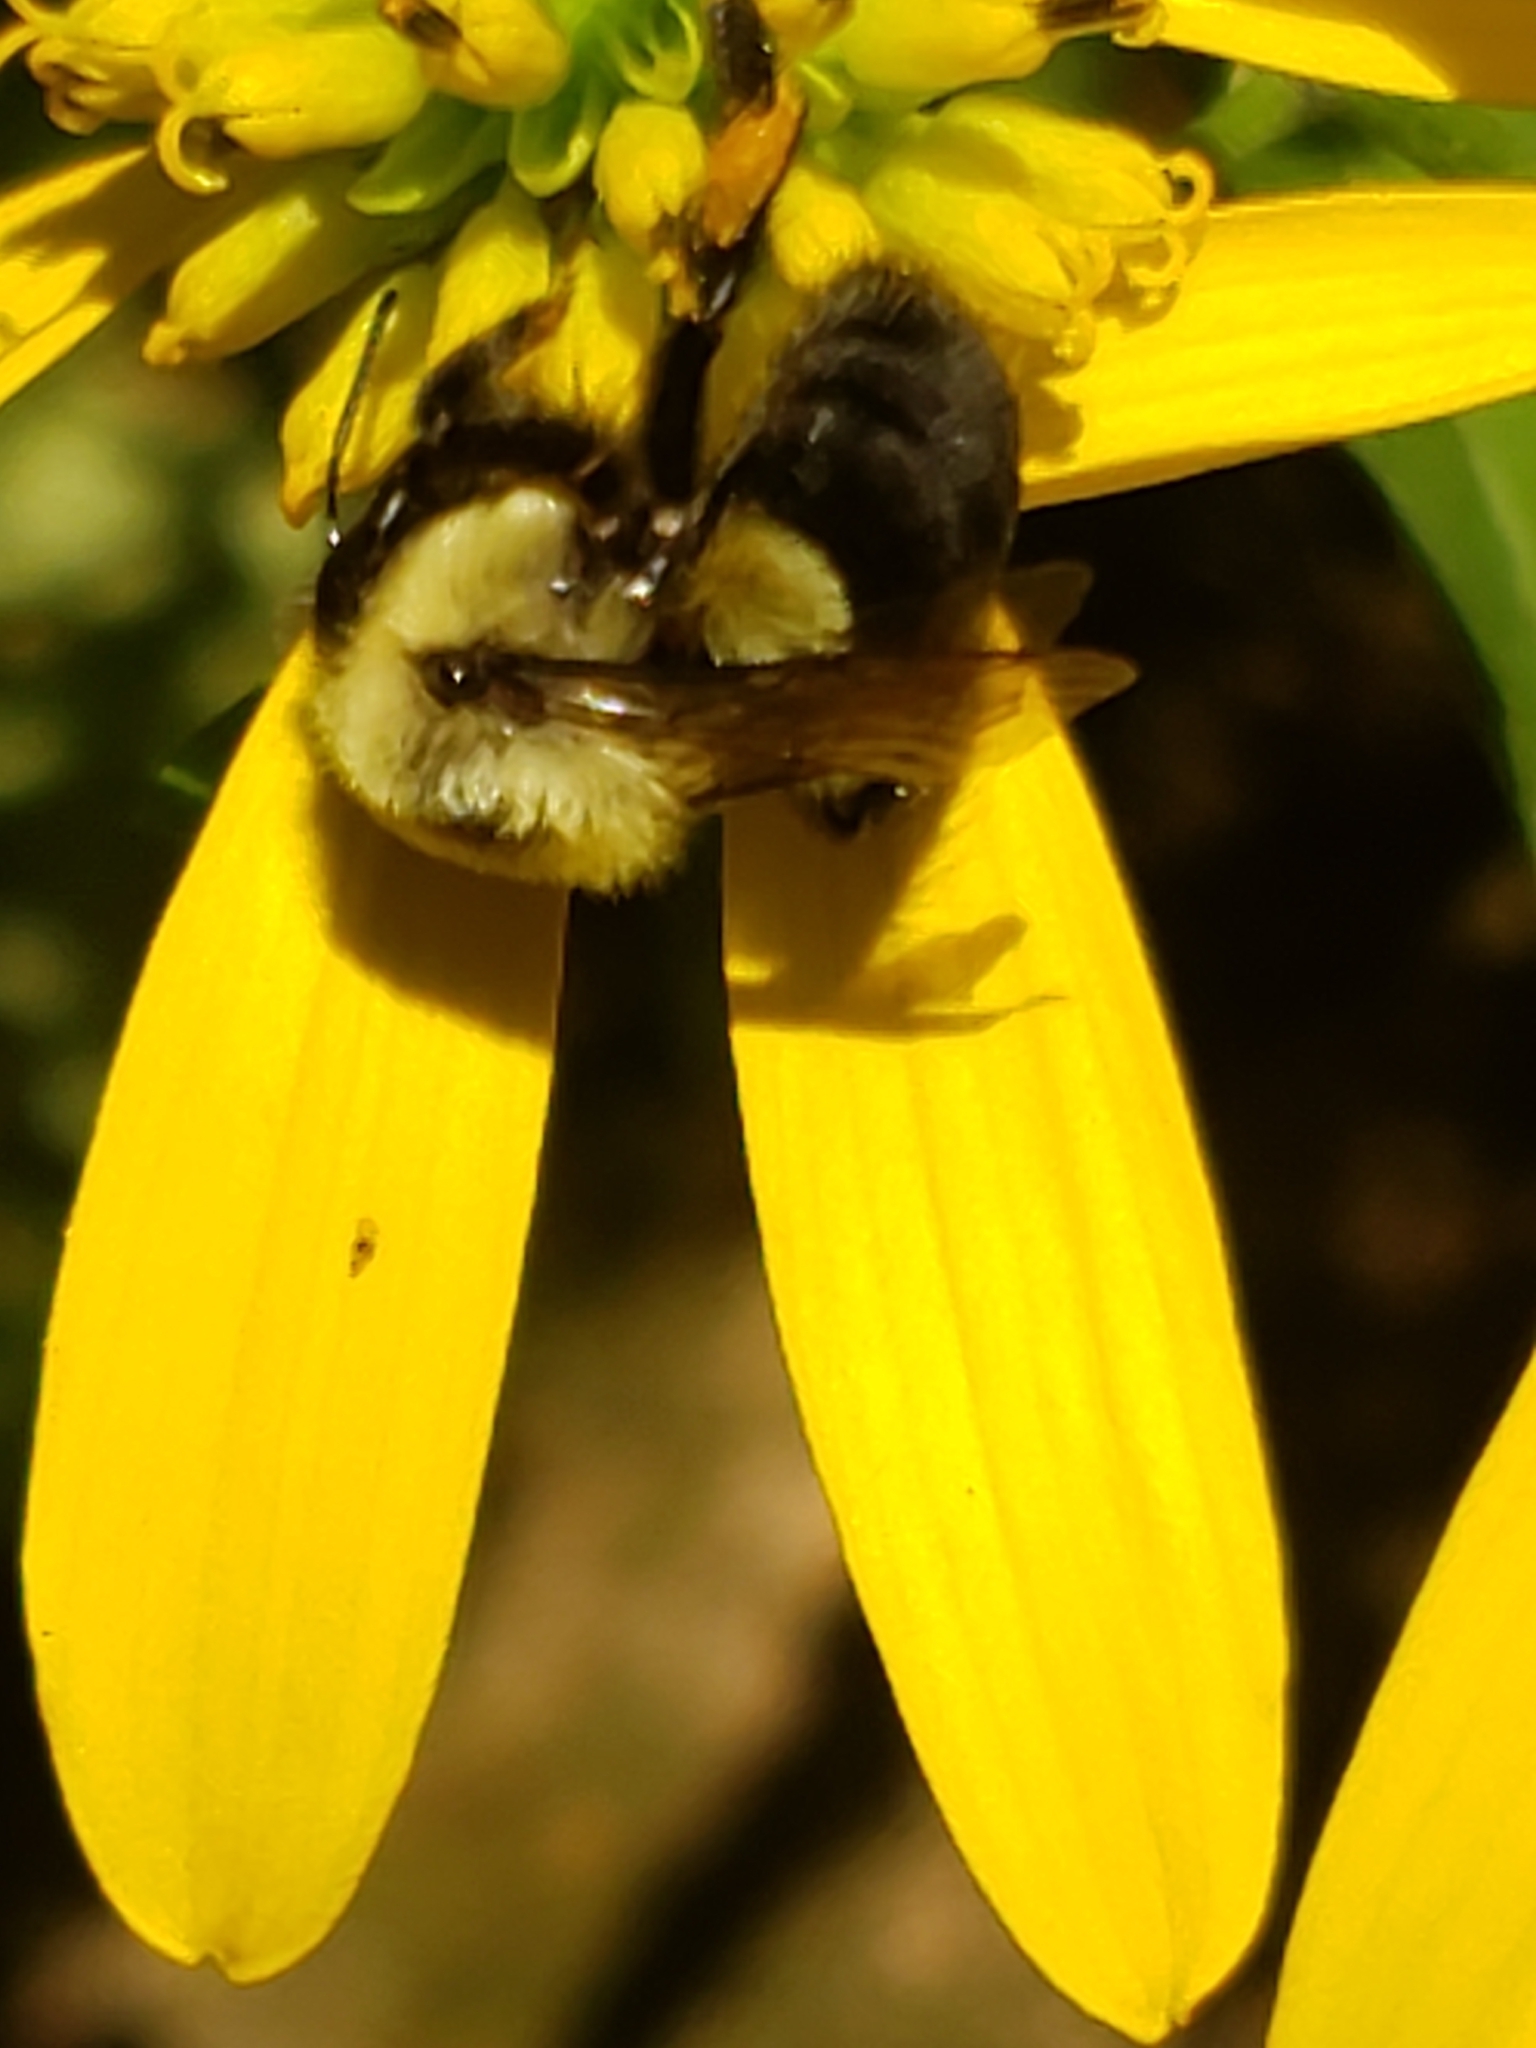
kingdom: Animalia
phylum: Arthropoda
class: Insecta
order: Hymenoptera
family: Apidae
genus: Bombus
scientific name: Bombus impatiens
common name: Common eastern bumble bee
